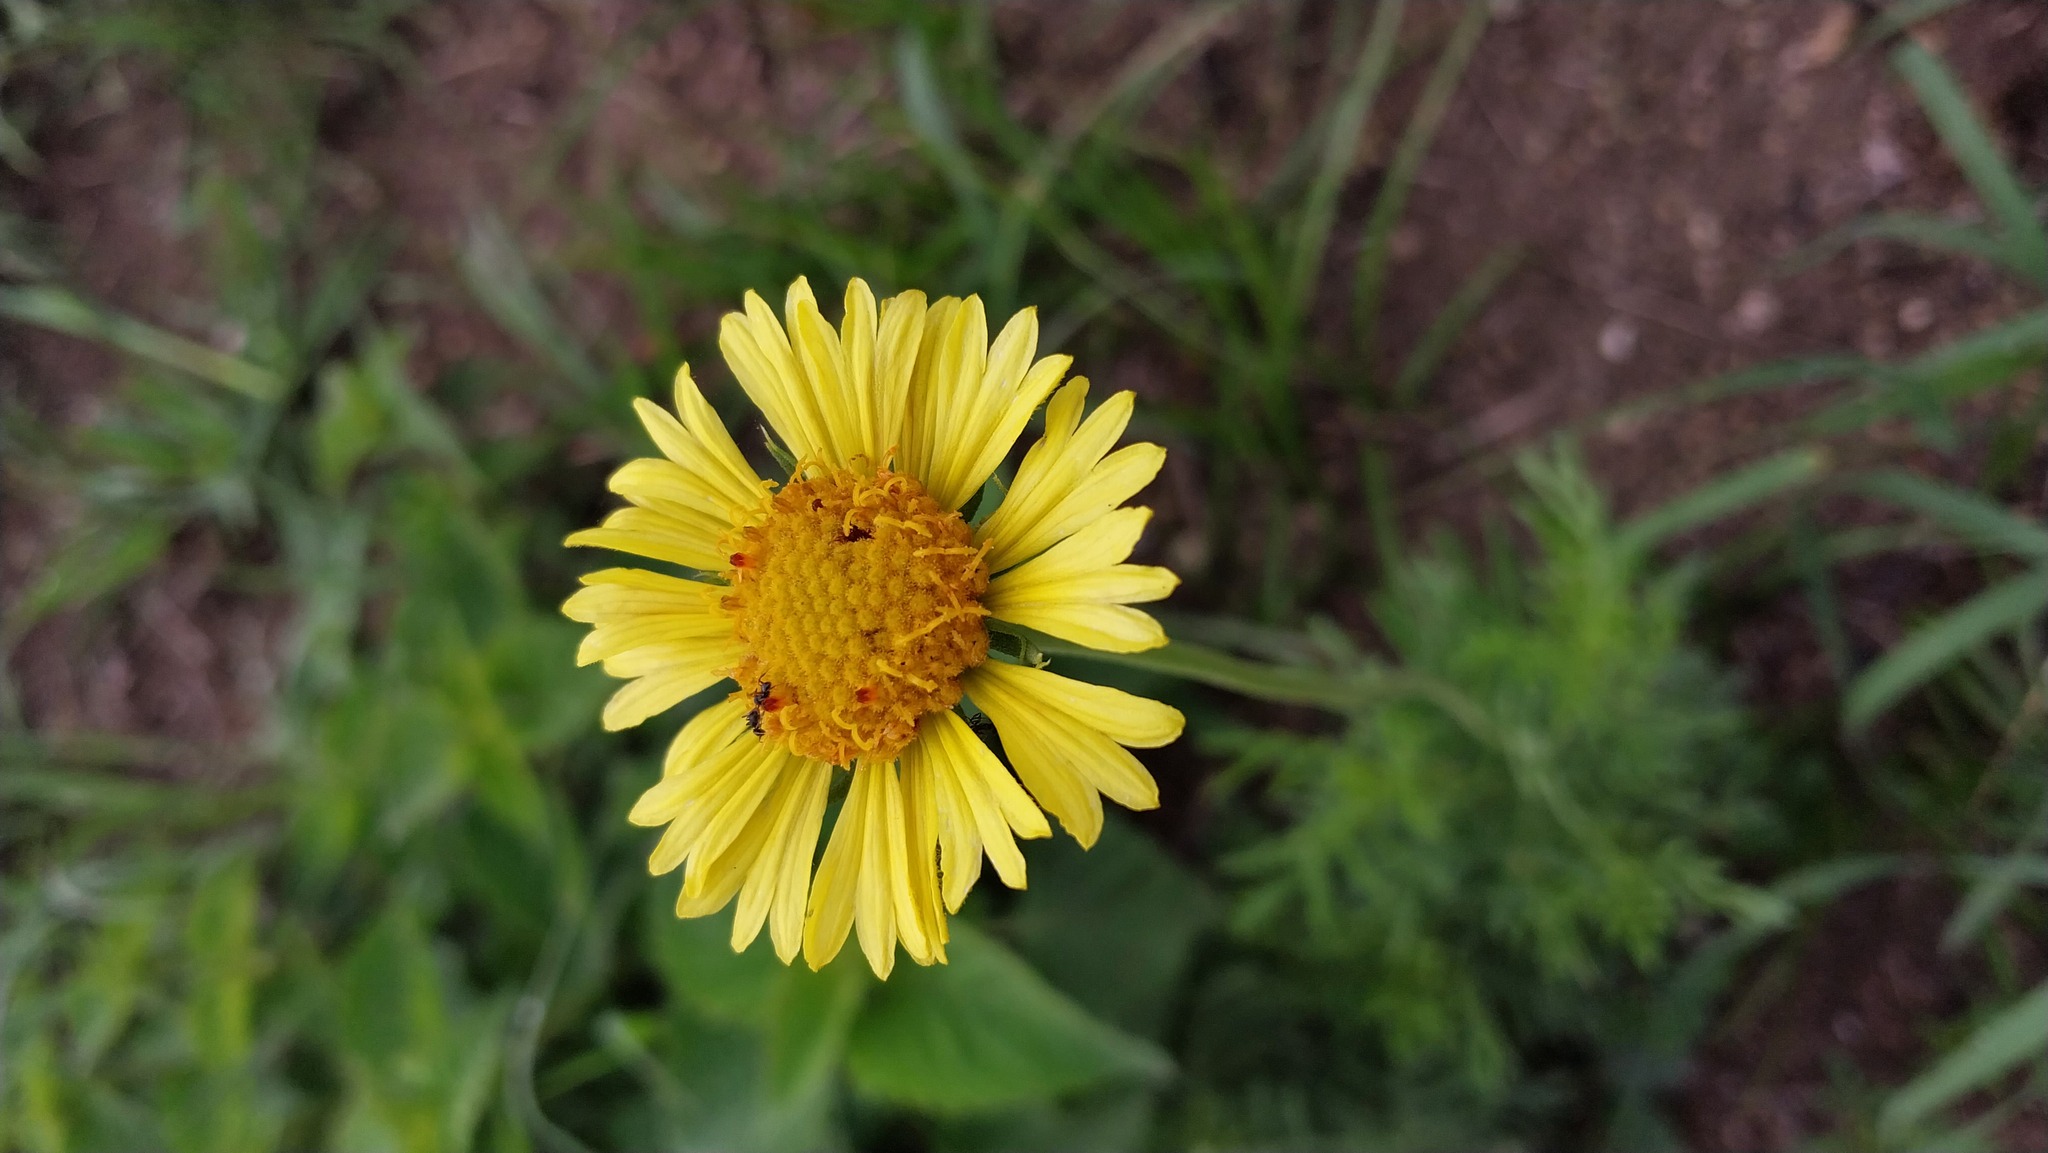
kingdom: Plantae
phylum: Tracheophyta
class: Magnoliopsida
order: Asterales
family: Asteraceae
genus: Gaillardia
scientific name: Gaillardia megapotamica
